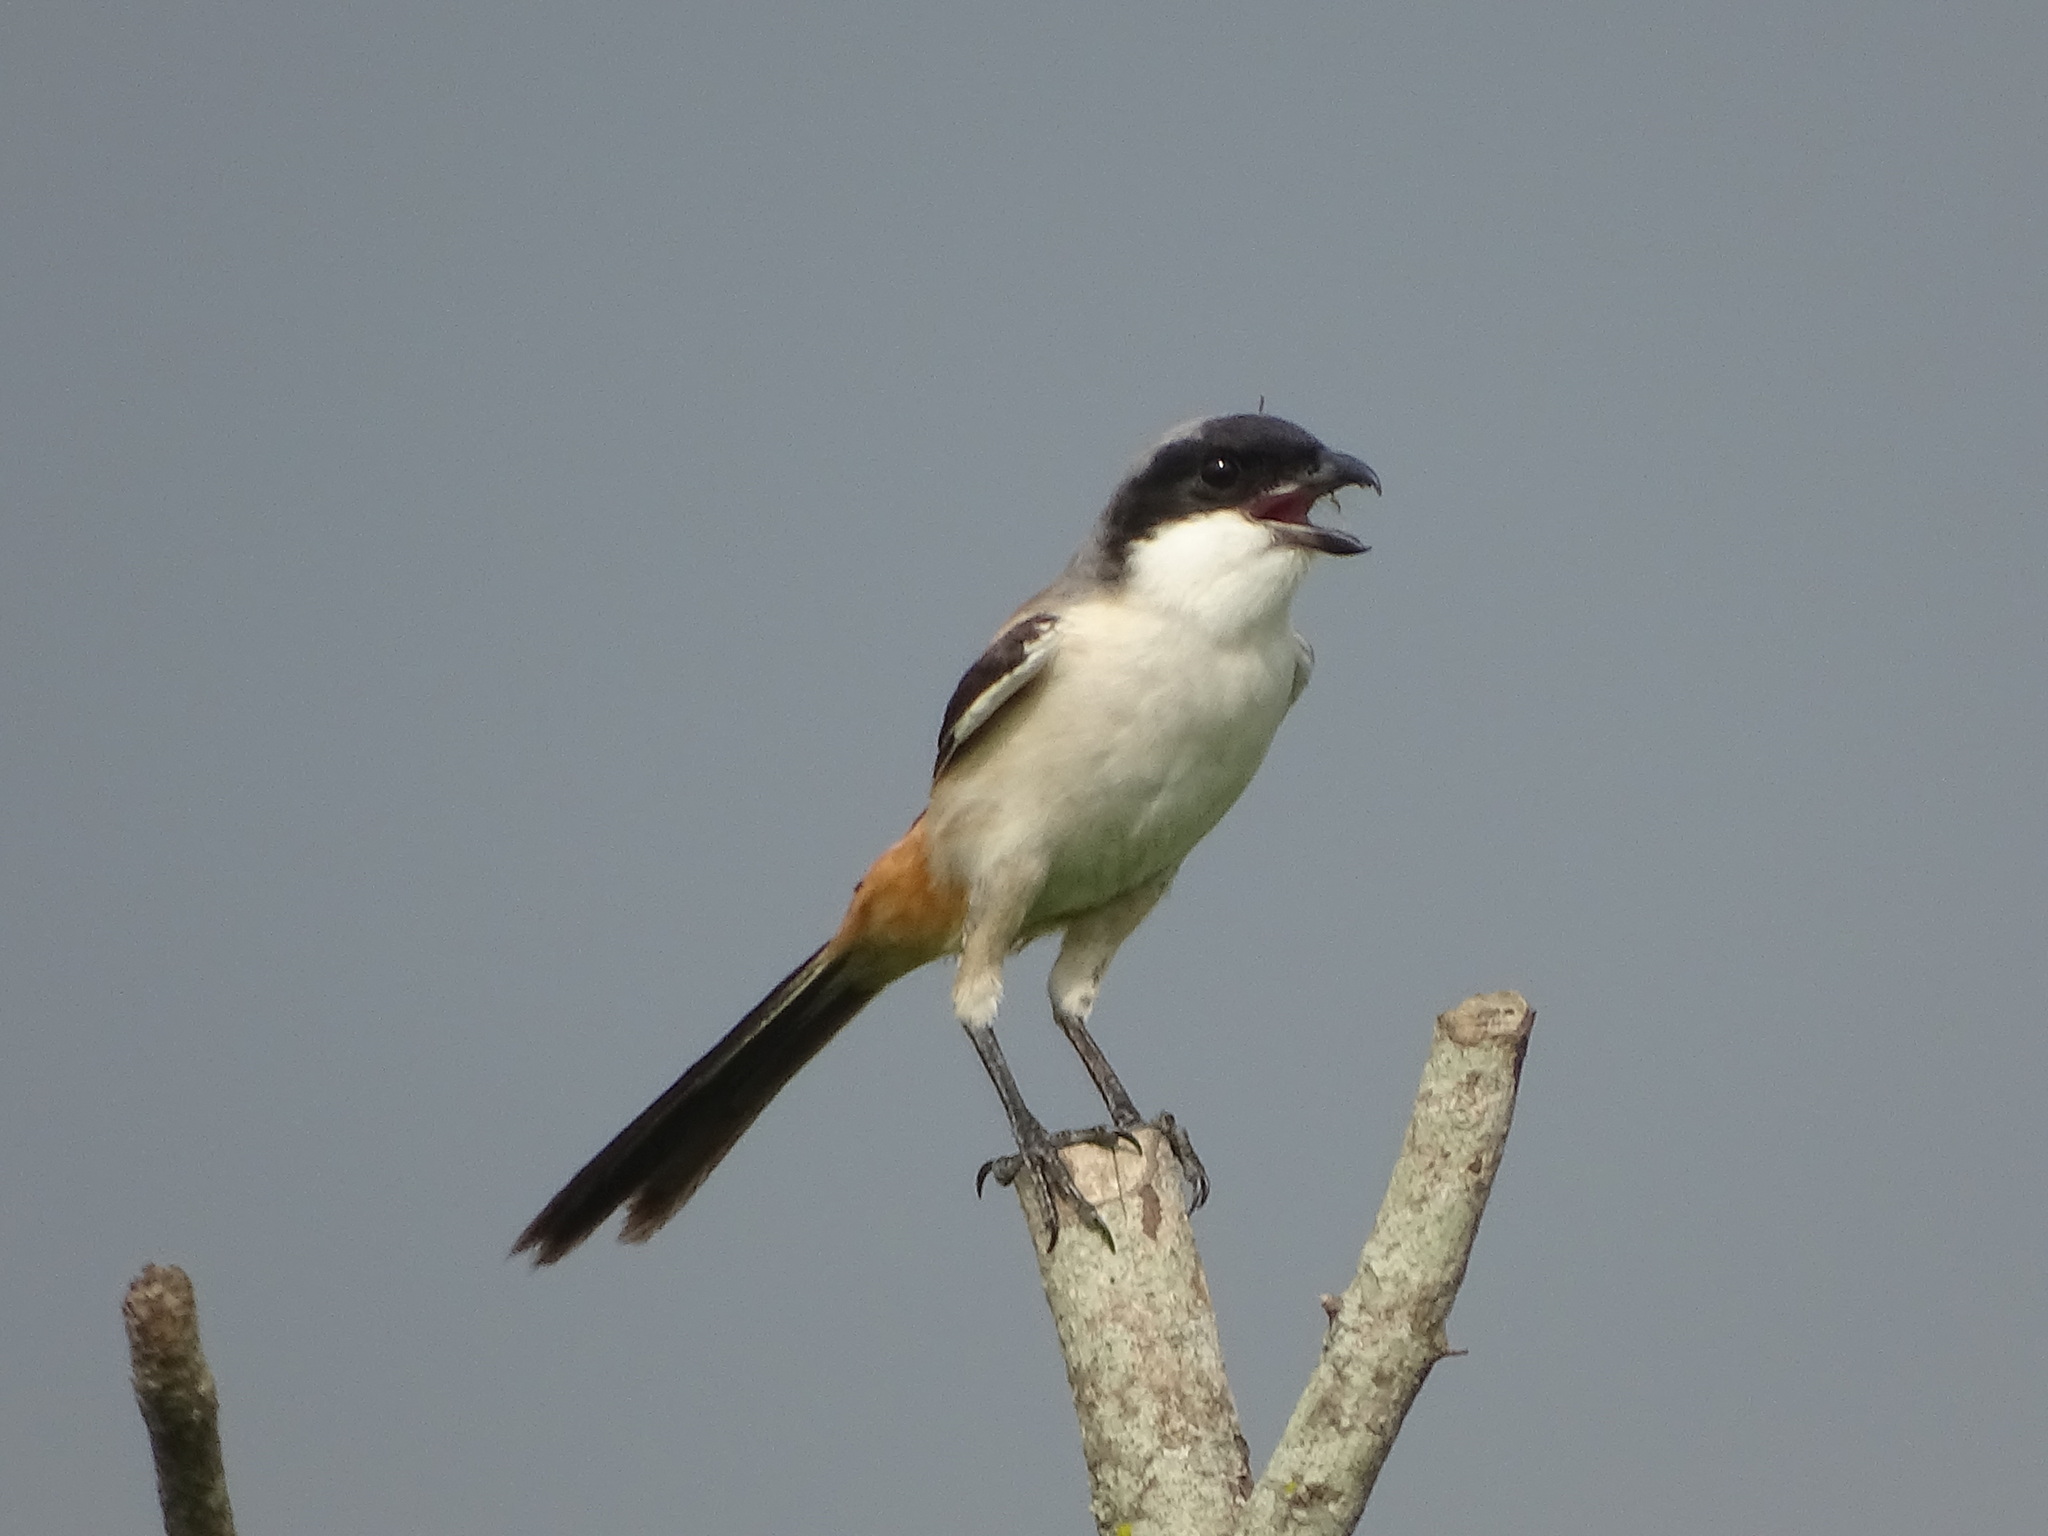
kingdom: Animalia
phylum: Chordata
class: Aves
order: Passeriformes
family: Laniidae
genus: Lanius
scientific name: Lanius schach
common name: Long-tailed shrike
